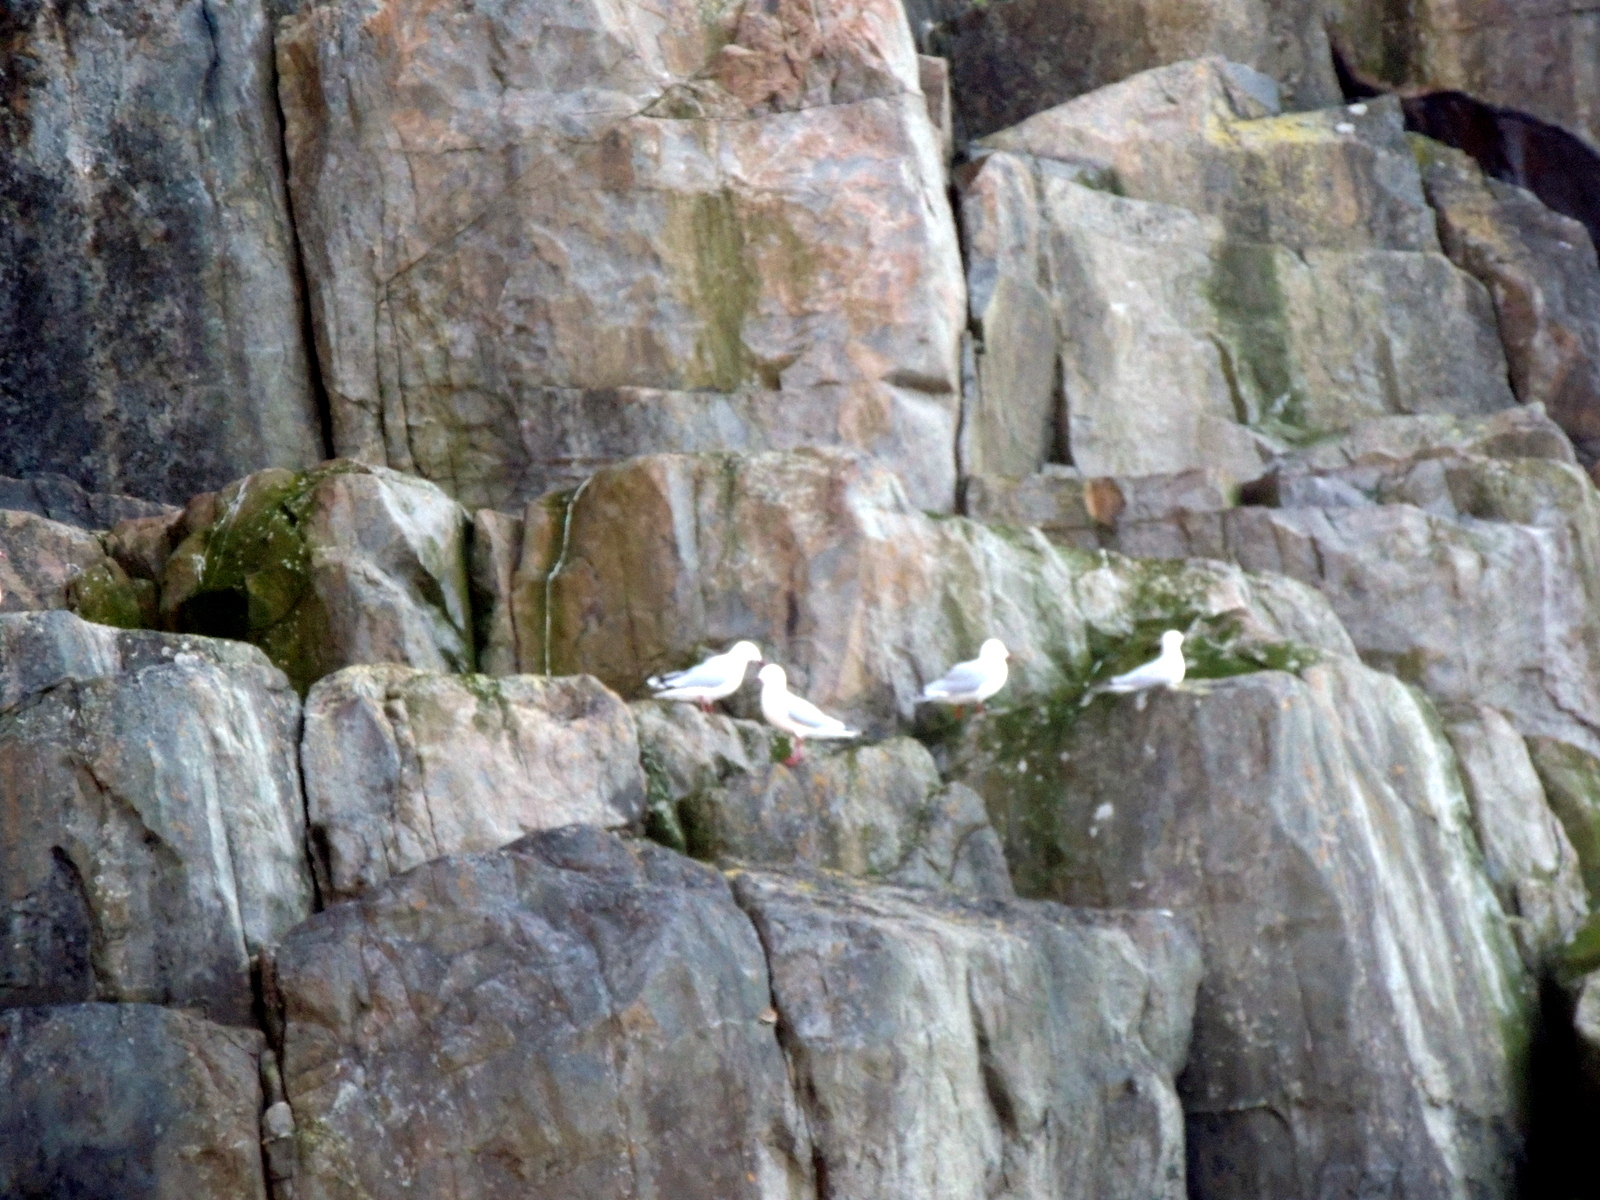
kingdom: Animalia
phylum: Chordata
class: Aves
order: Charadriiformes
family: Laridae
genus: Chroicocephalus
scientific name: Chroicocephalus novaehollandiae
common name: Silver gull
